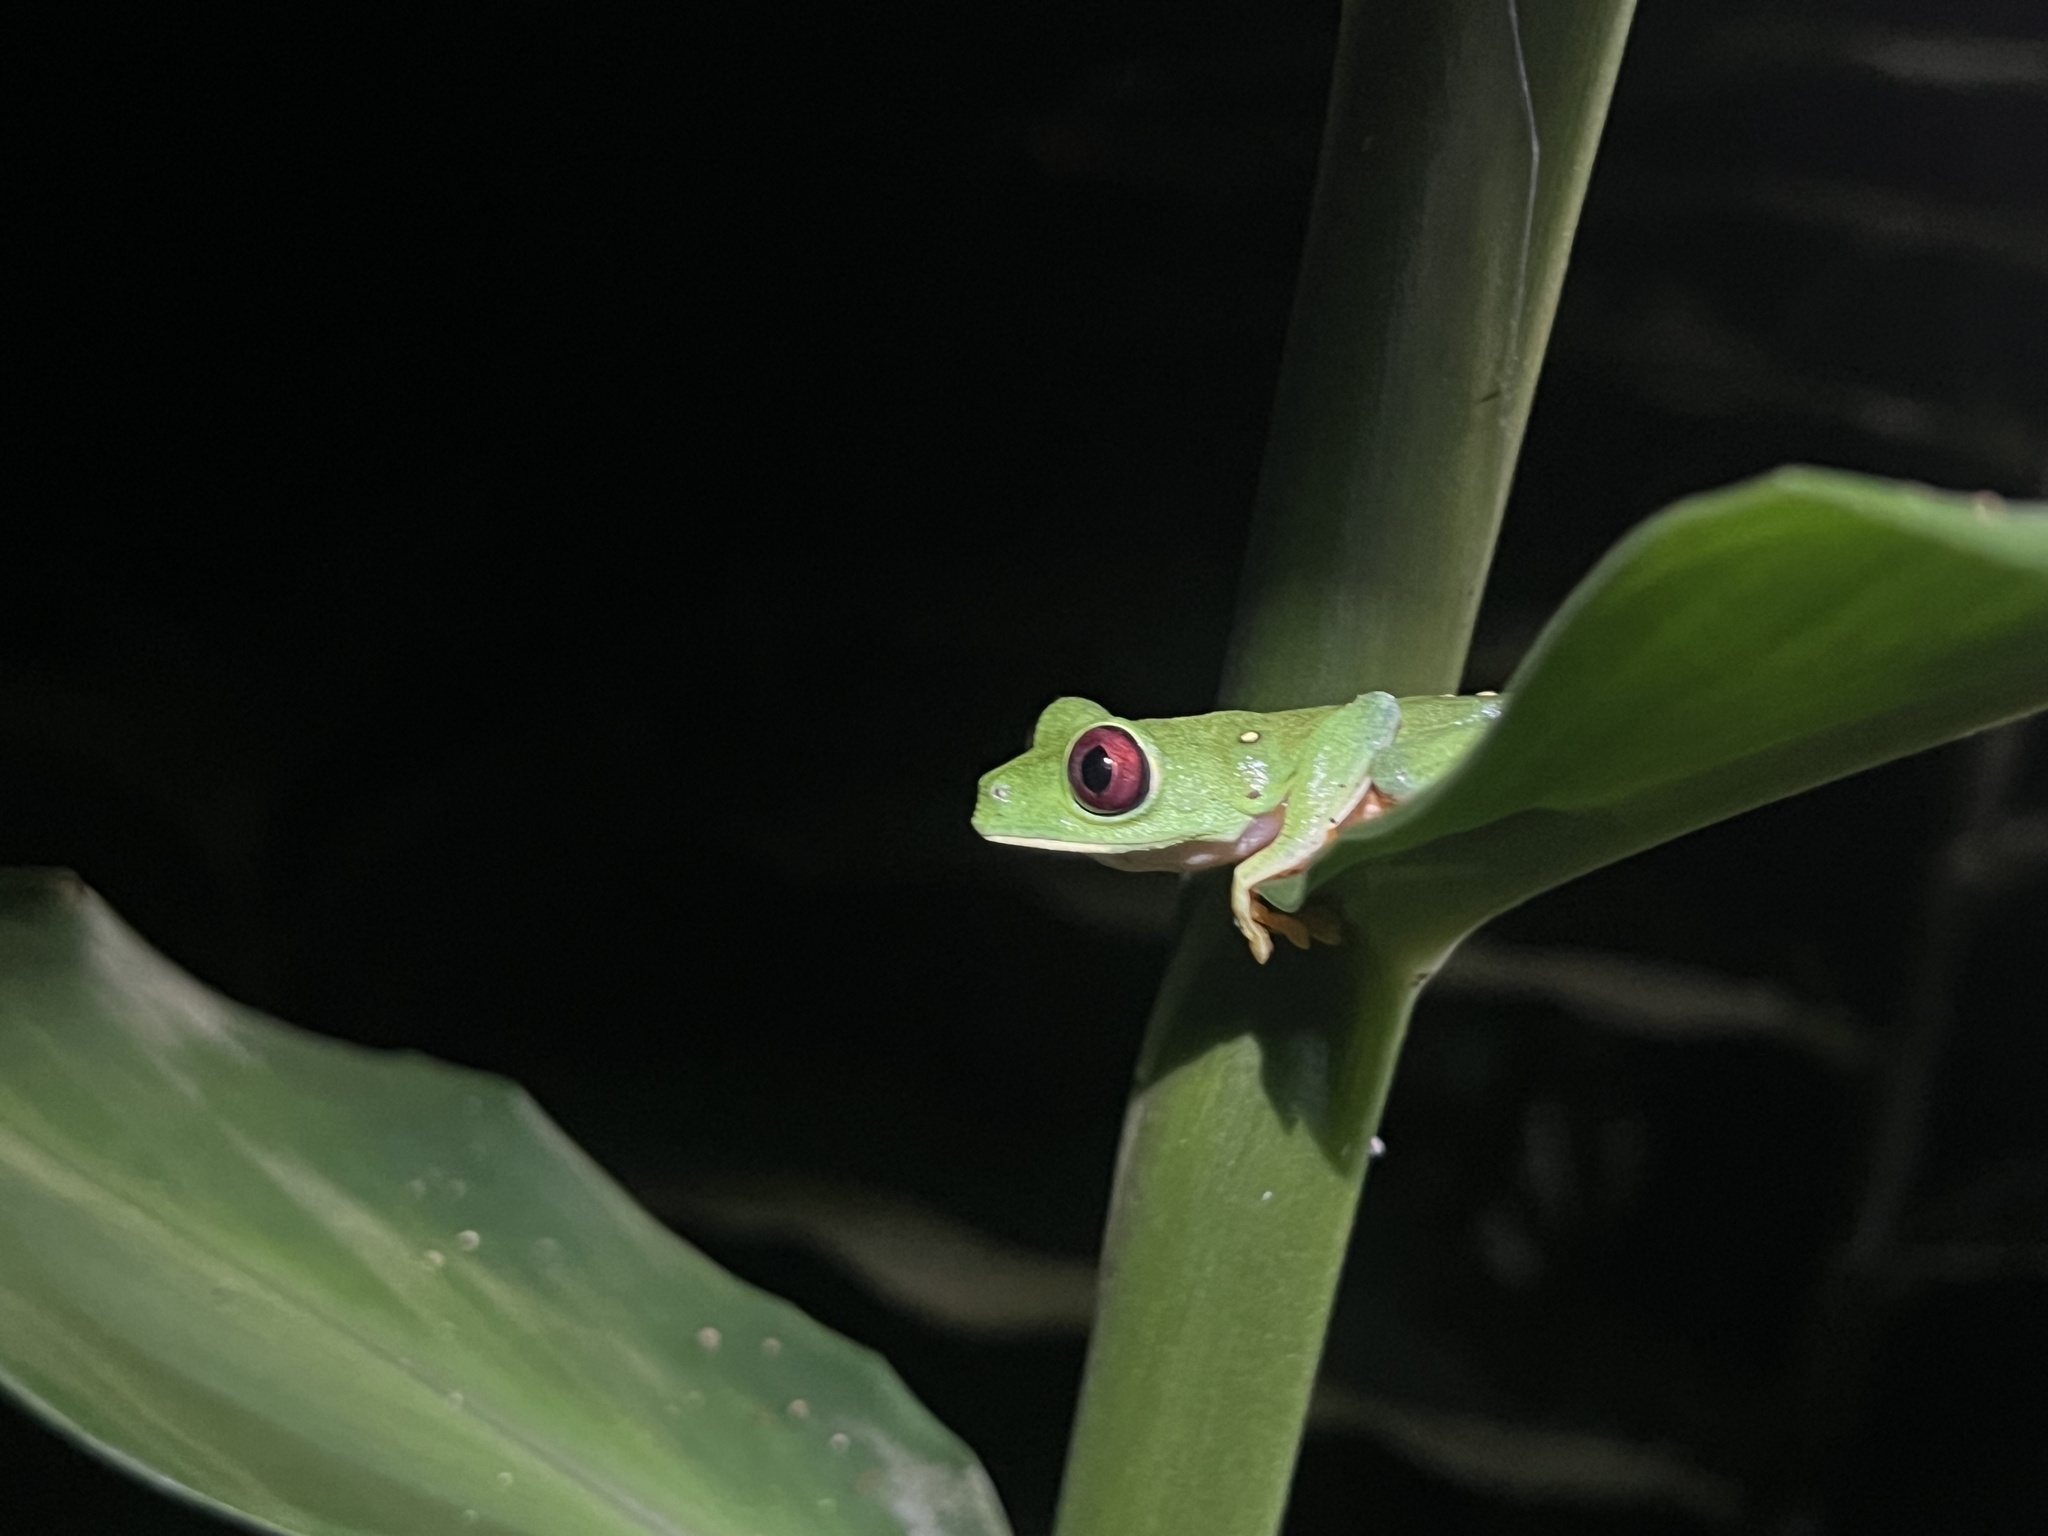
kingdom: Animalia
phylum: Chordata
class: Amphibia
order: Anura
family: Phyllomedusidae
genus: Agalychnis
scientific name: Agalychnis callidryas
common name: Red-eyed treefrog
